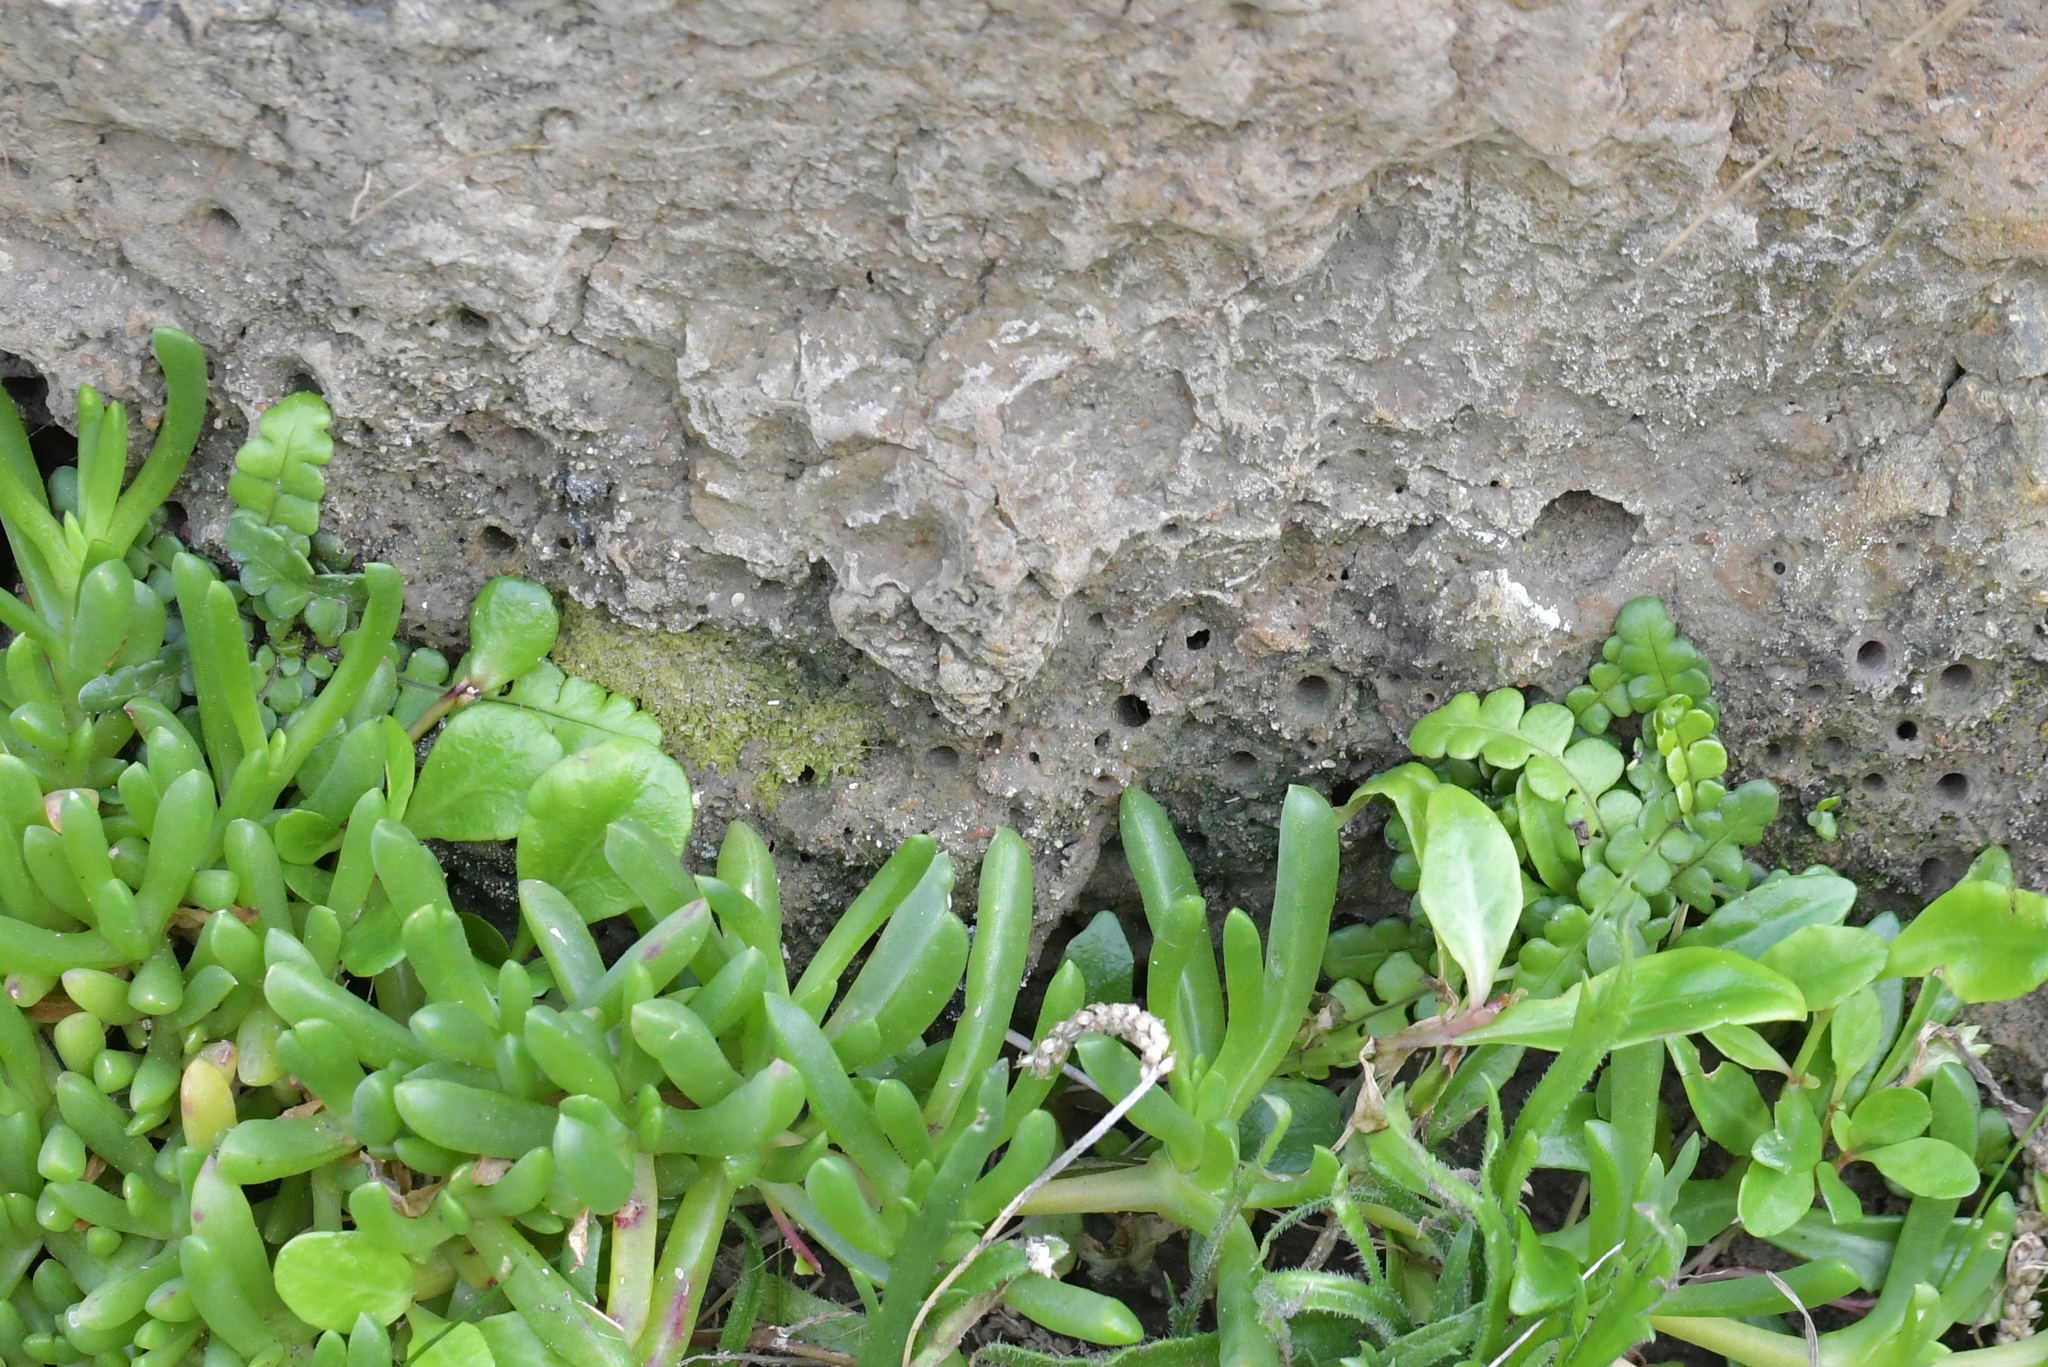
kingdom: Plantae
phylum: Tracheophyta
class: Polypodiopsida
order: Polypodiales
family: Blechnaceae
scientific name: Blechnaceae
